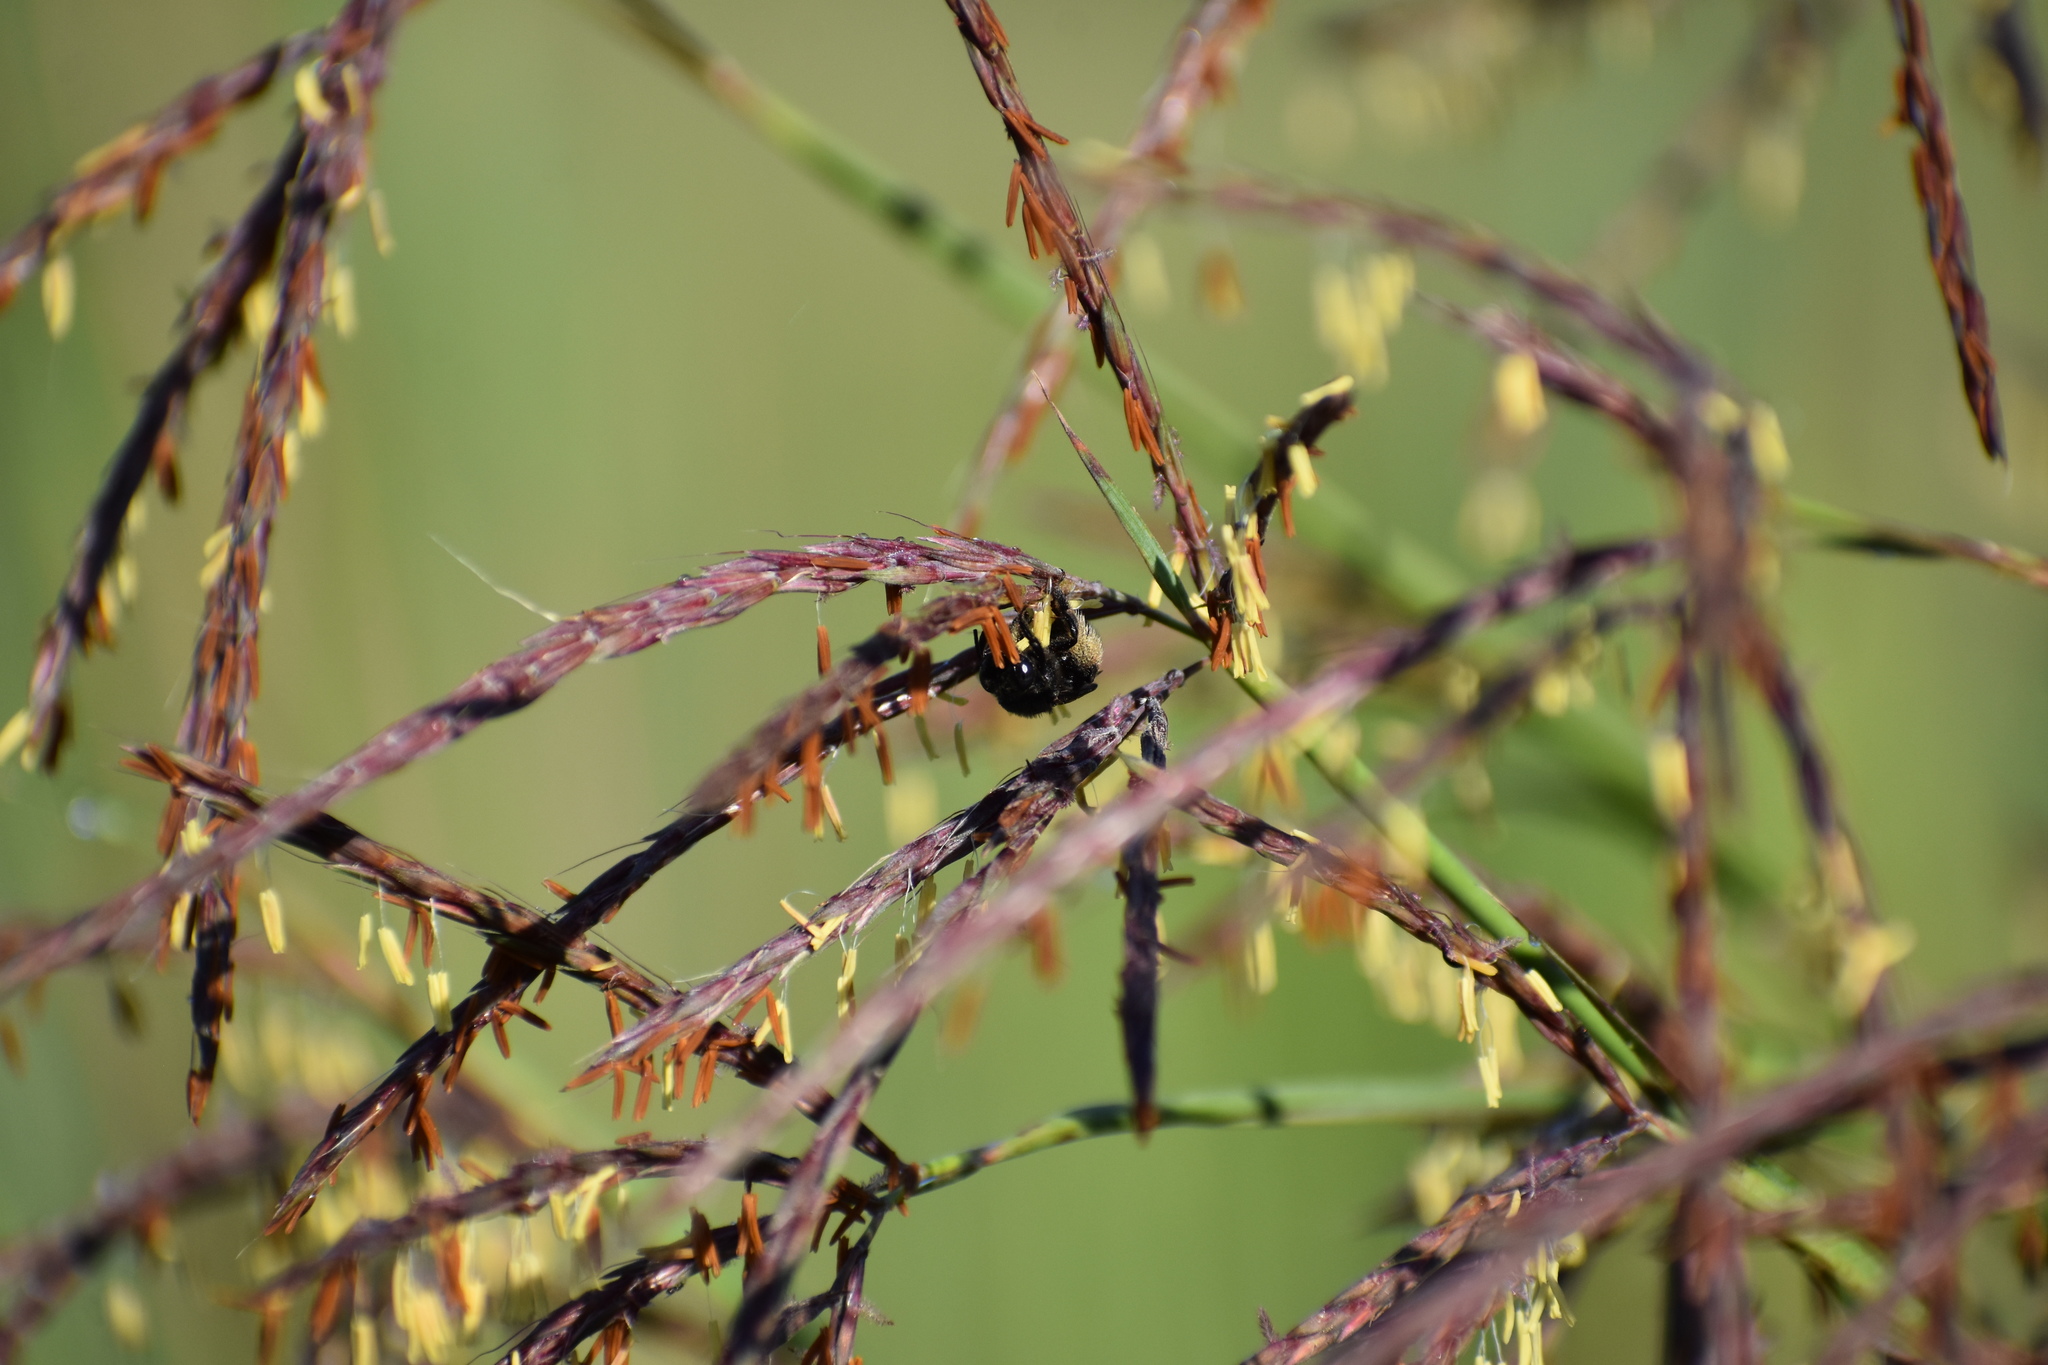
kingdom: Animalia
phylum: Arthropoda
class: Insecta
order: Hymenoptera
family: Apidae
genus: Melissodes
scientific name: Melissodes bimaculatus
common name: Two-spotted long-horned bee
